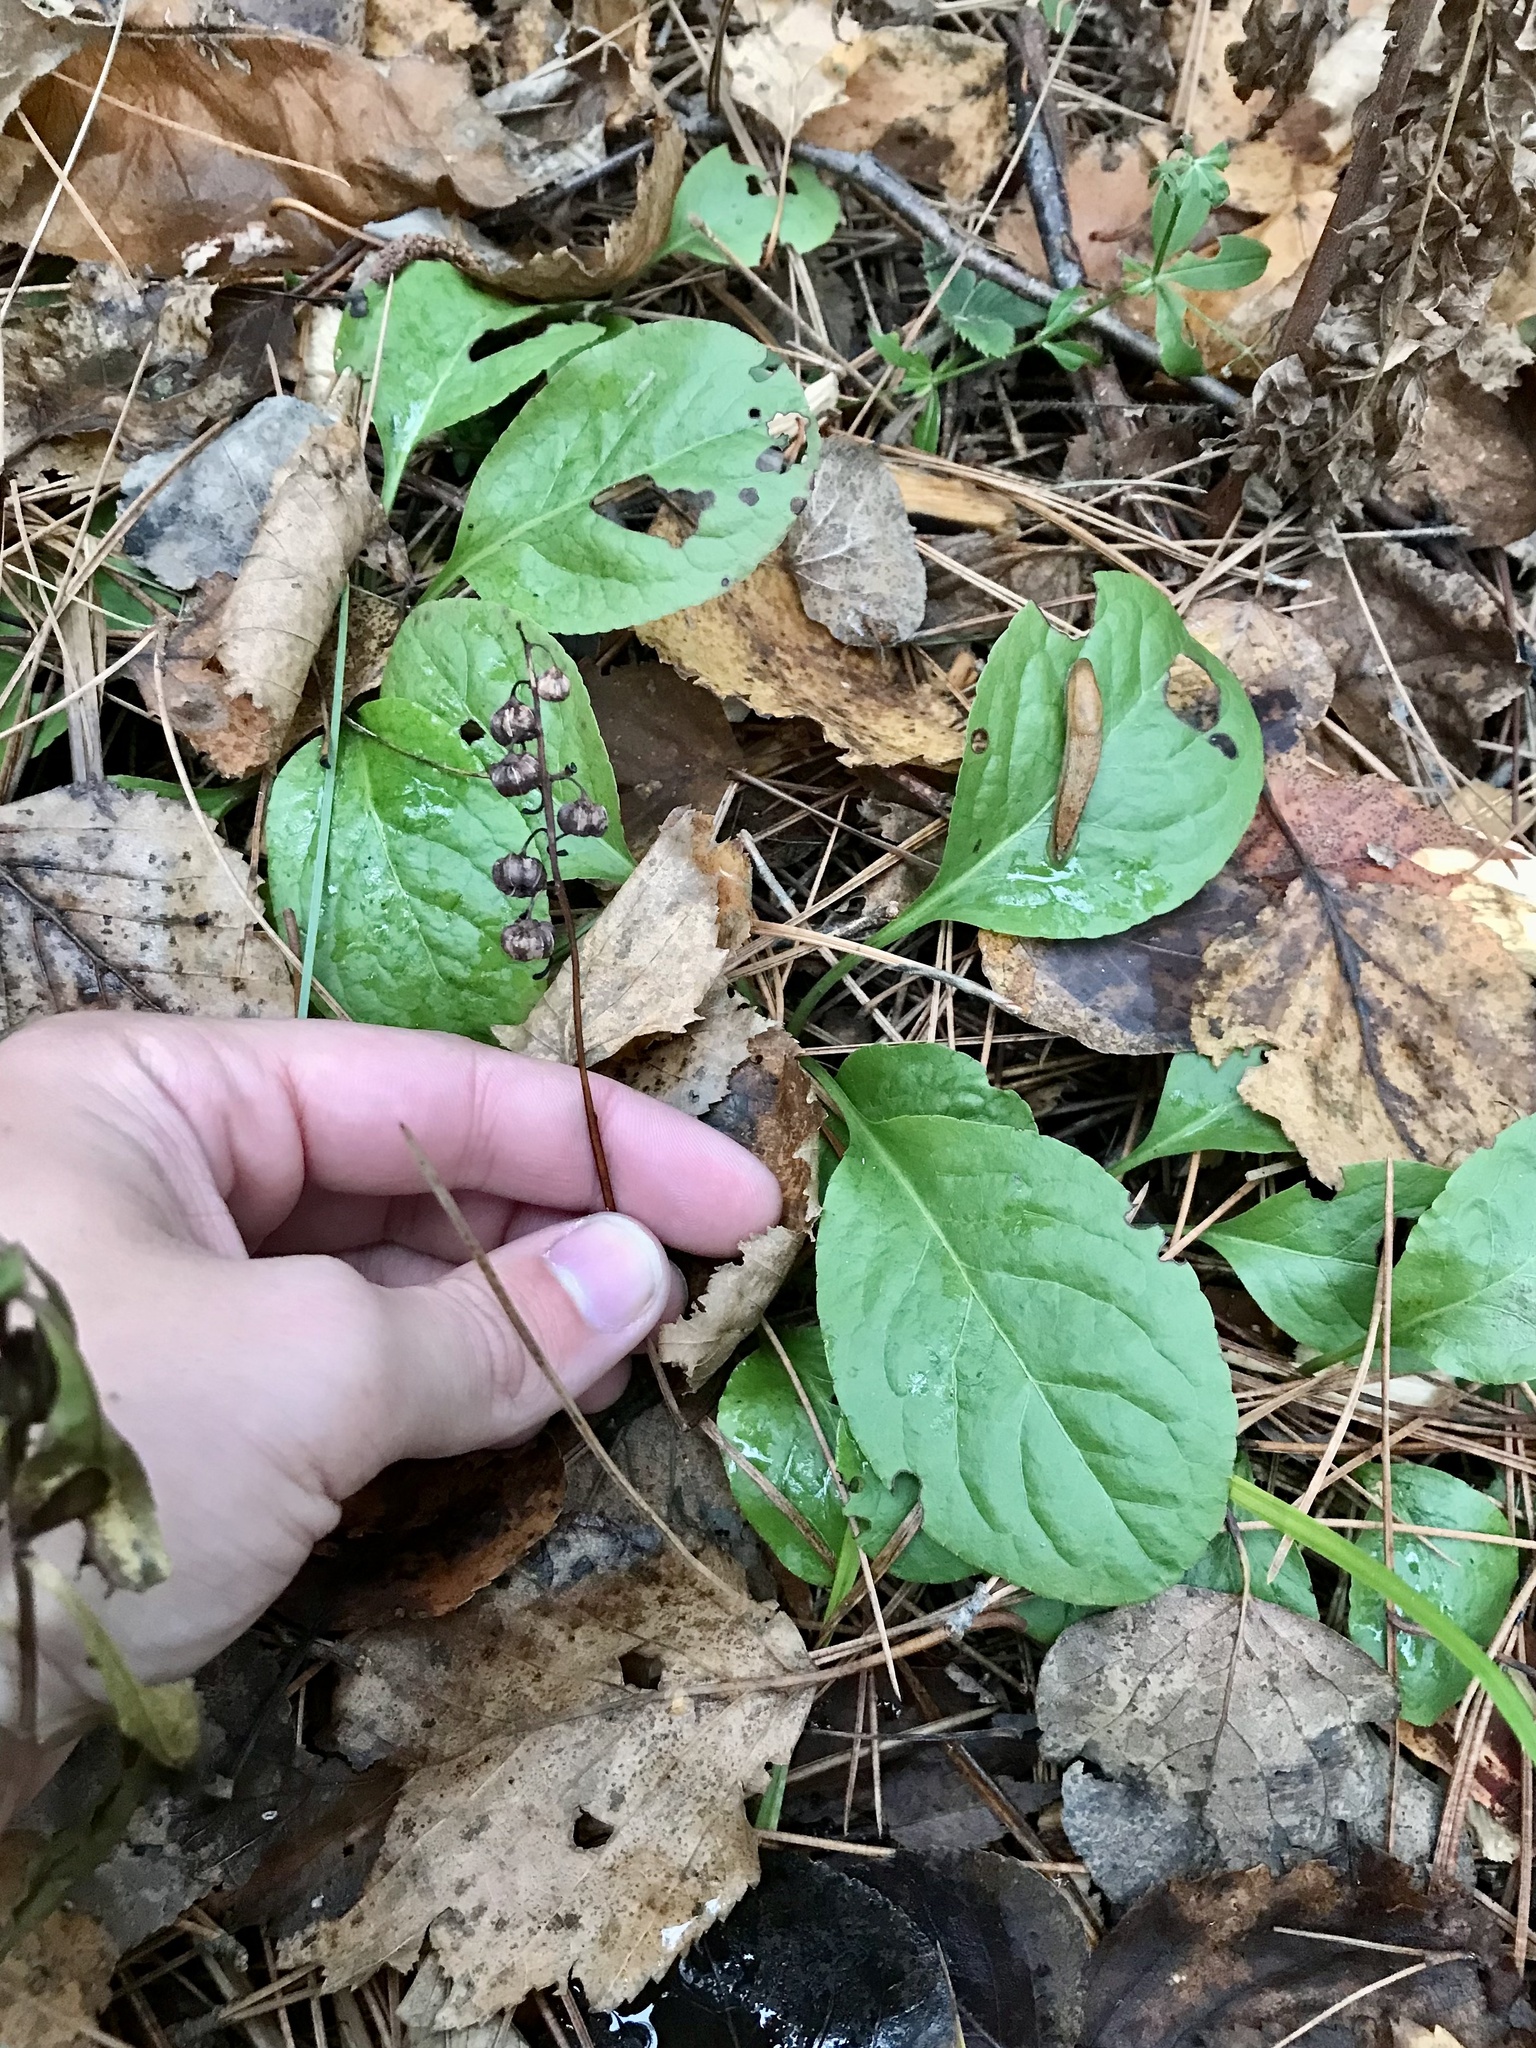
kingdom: Plantae
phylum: Tracheophyta
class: Magnoliopsida
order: Ericales
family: Ericaceae
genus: Pyrola
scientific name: Pyrola elliptica
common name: Shinleaf
